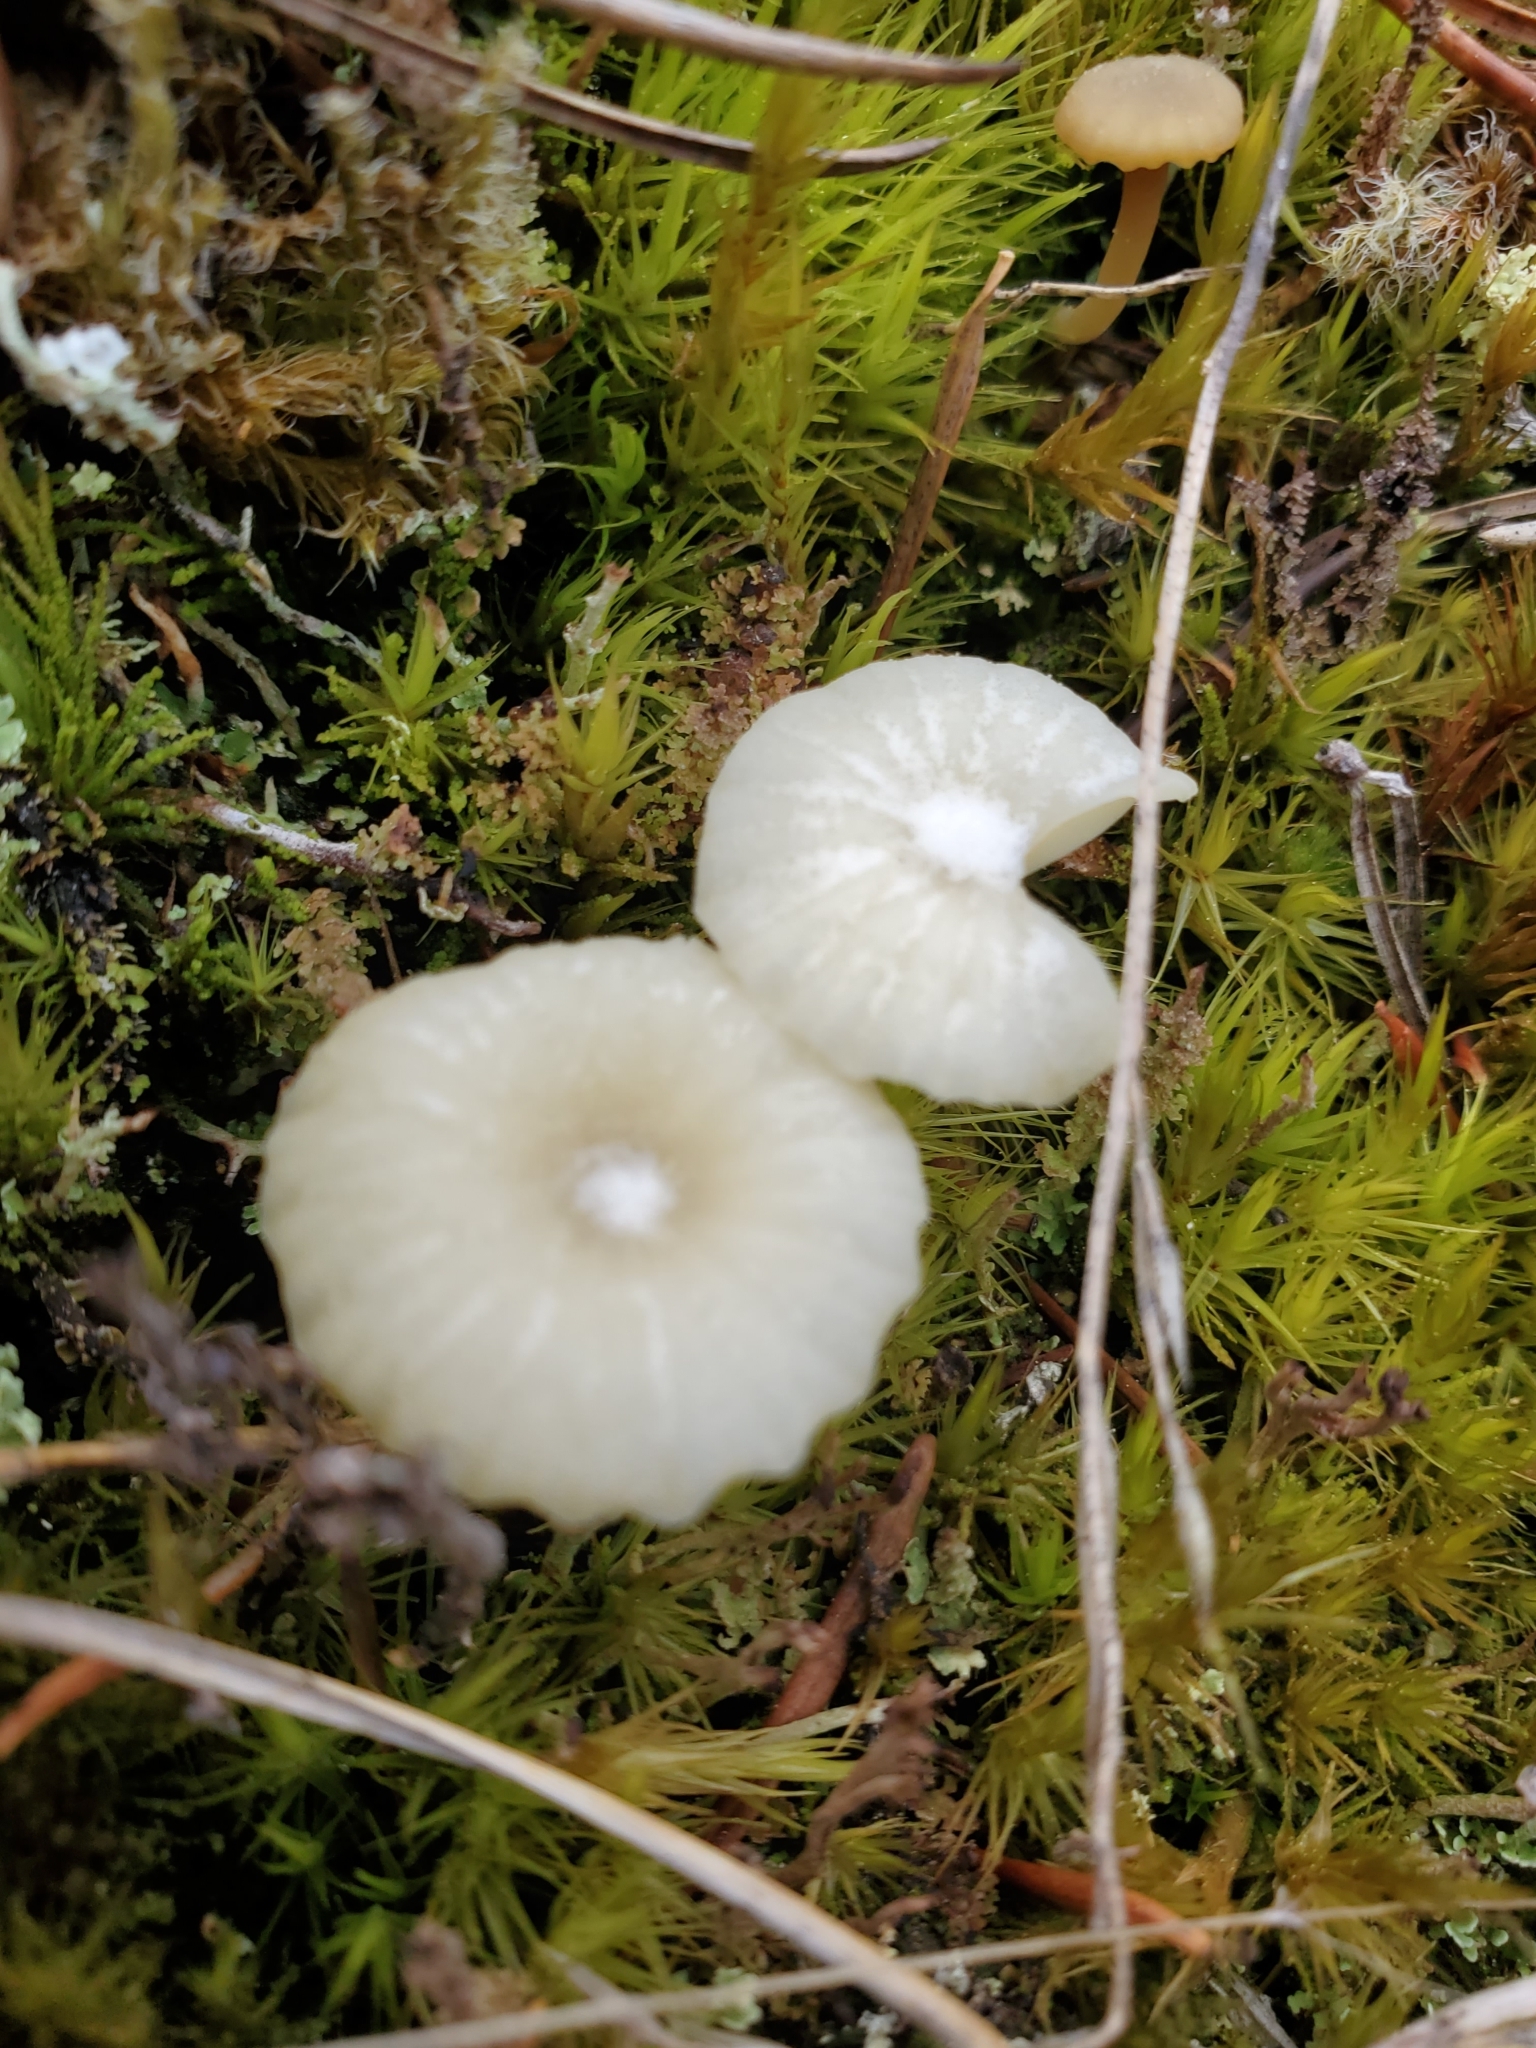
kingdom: Fungi
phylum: Basidiomycota
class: Agaricomycetes
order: Agaricales
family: Hygrophoraceae
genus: Lichenomphalia
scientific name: Lichenomphalia
